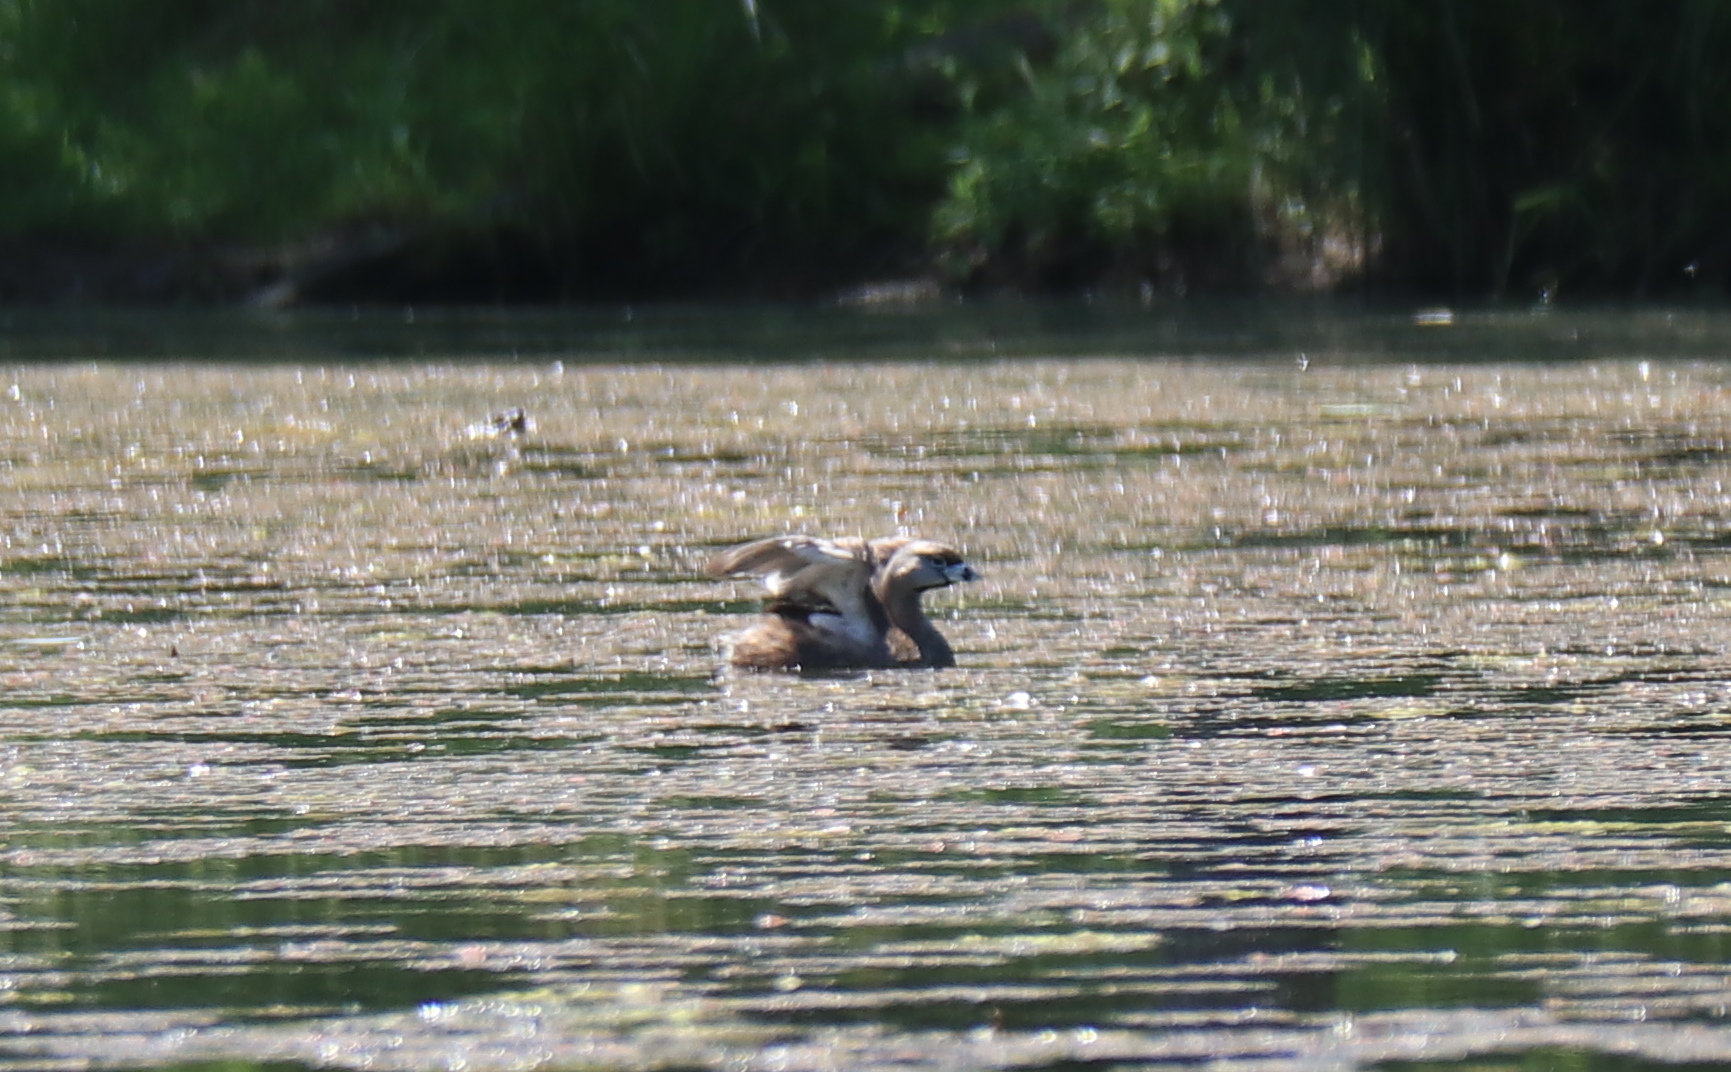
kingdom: Animalia
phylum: Chordata
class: Aves
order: Podicipediformes
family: Podicipedidae
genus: Podilymbus
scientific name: Podilymbus podiceps
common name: Pied-billed grebe
